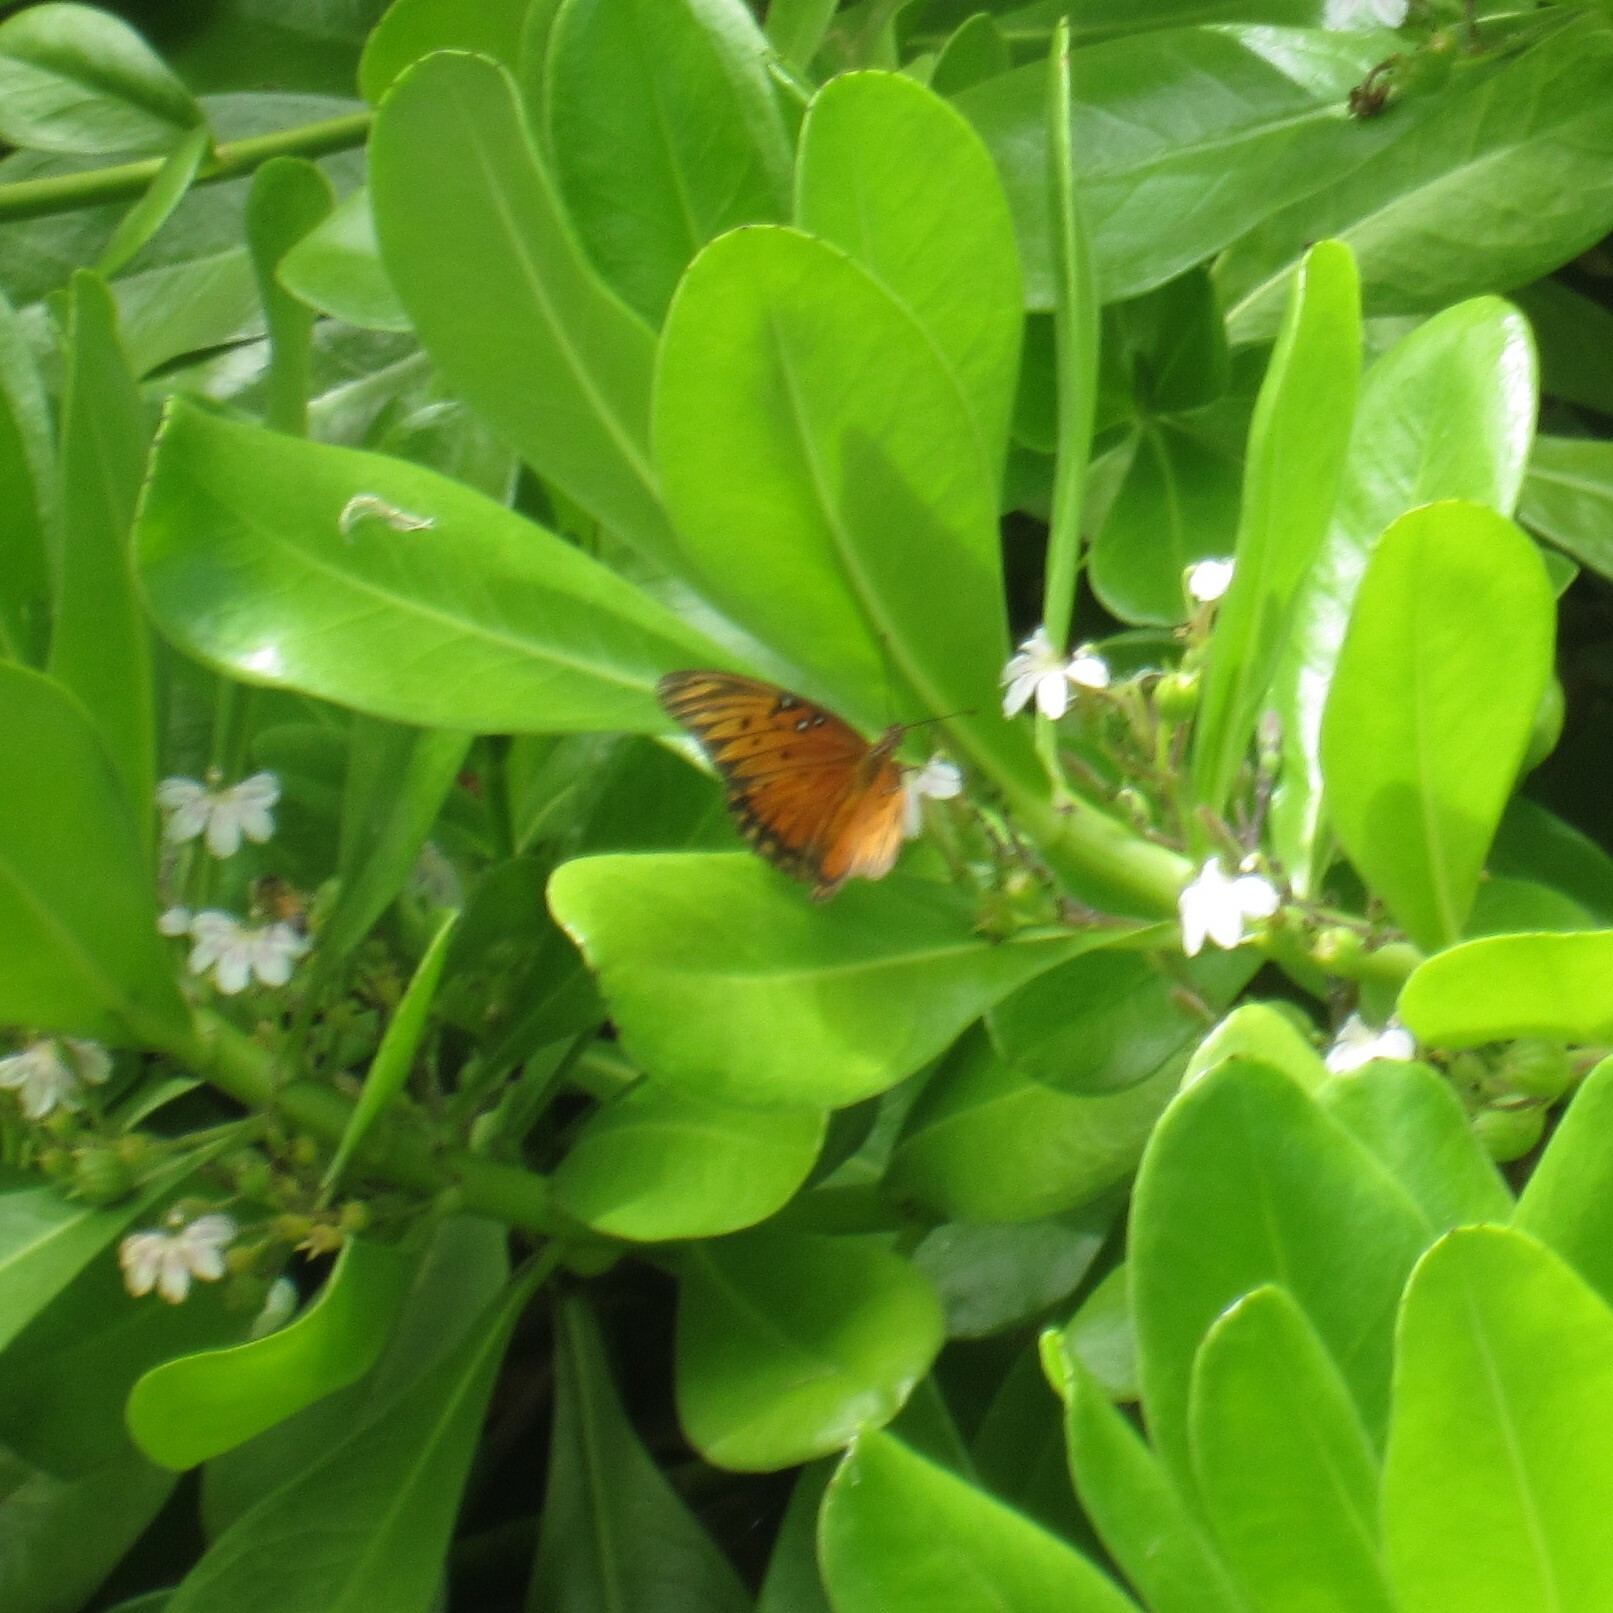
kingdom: Animalia
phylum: Arthropoda
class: Insecta
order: Lepidoptera
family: Nymphalidae
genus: Dione
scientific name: Dione vanillae
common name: Gulf fritillary
